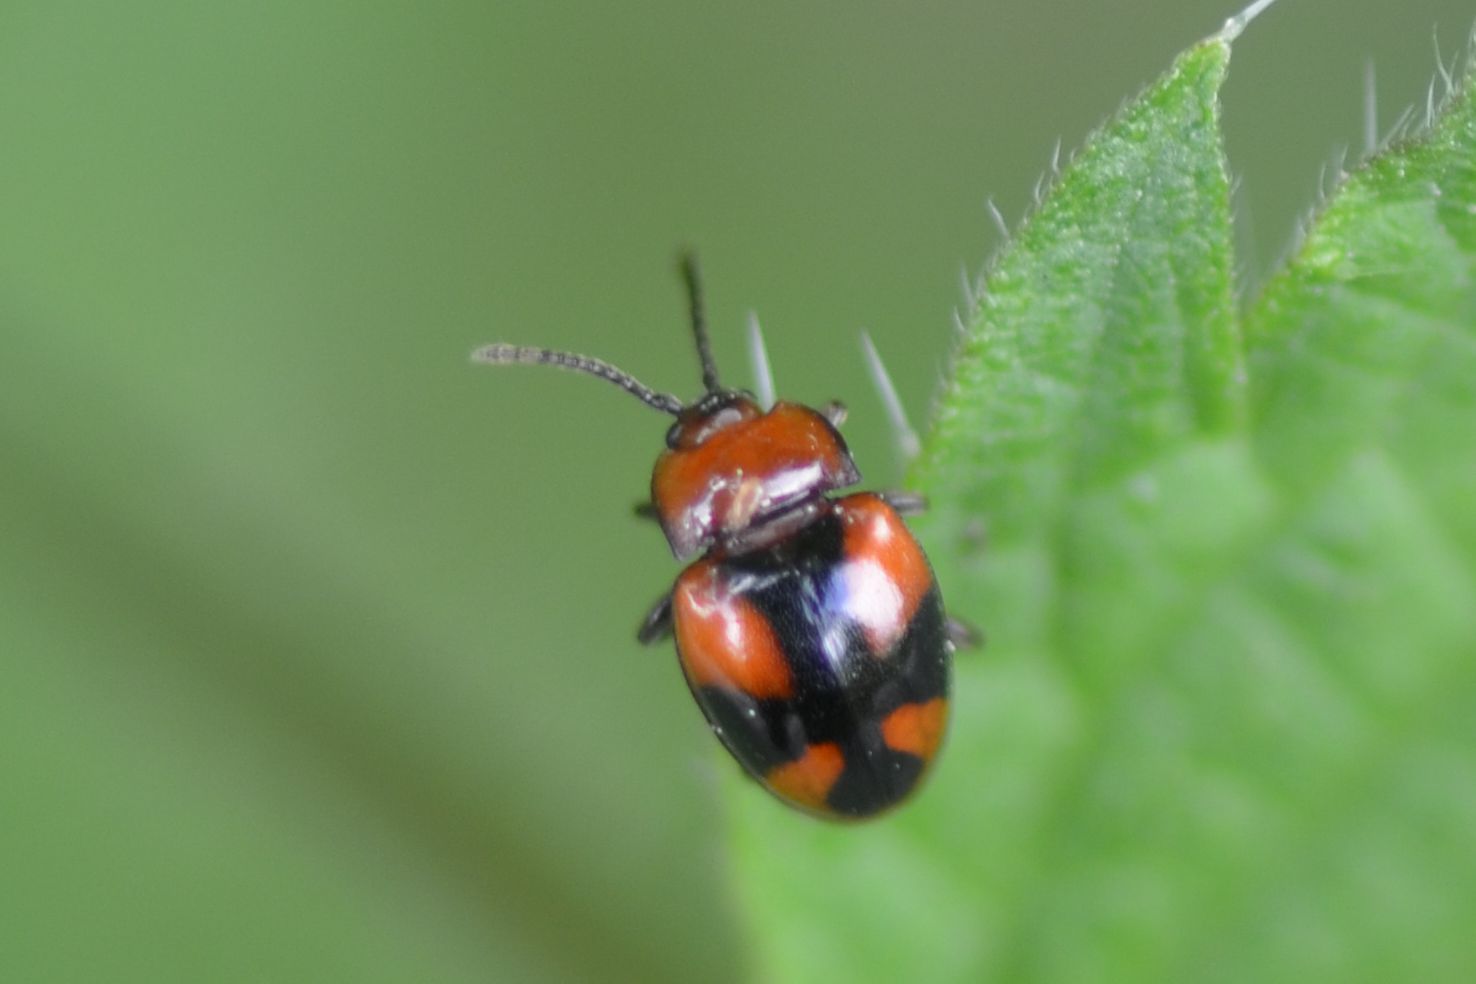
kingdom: Animalia
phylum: Arthropoda
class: Insecta
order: Coleoptera
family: Endomychidae
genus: Mycetina
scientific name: Mycetina cruciata
